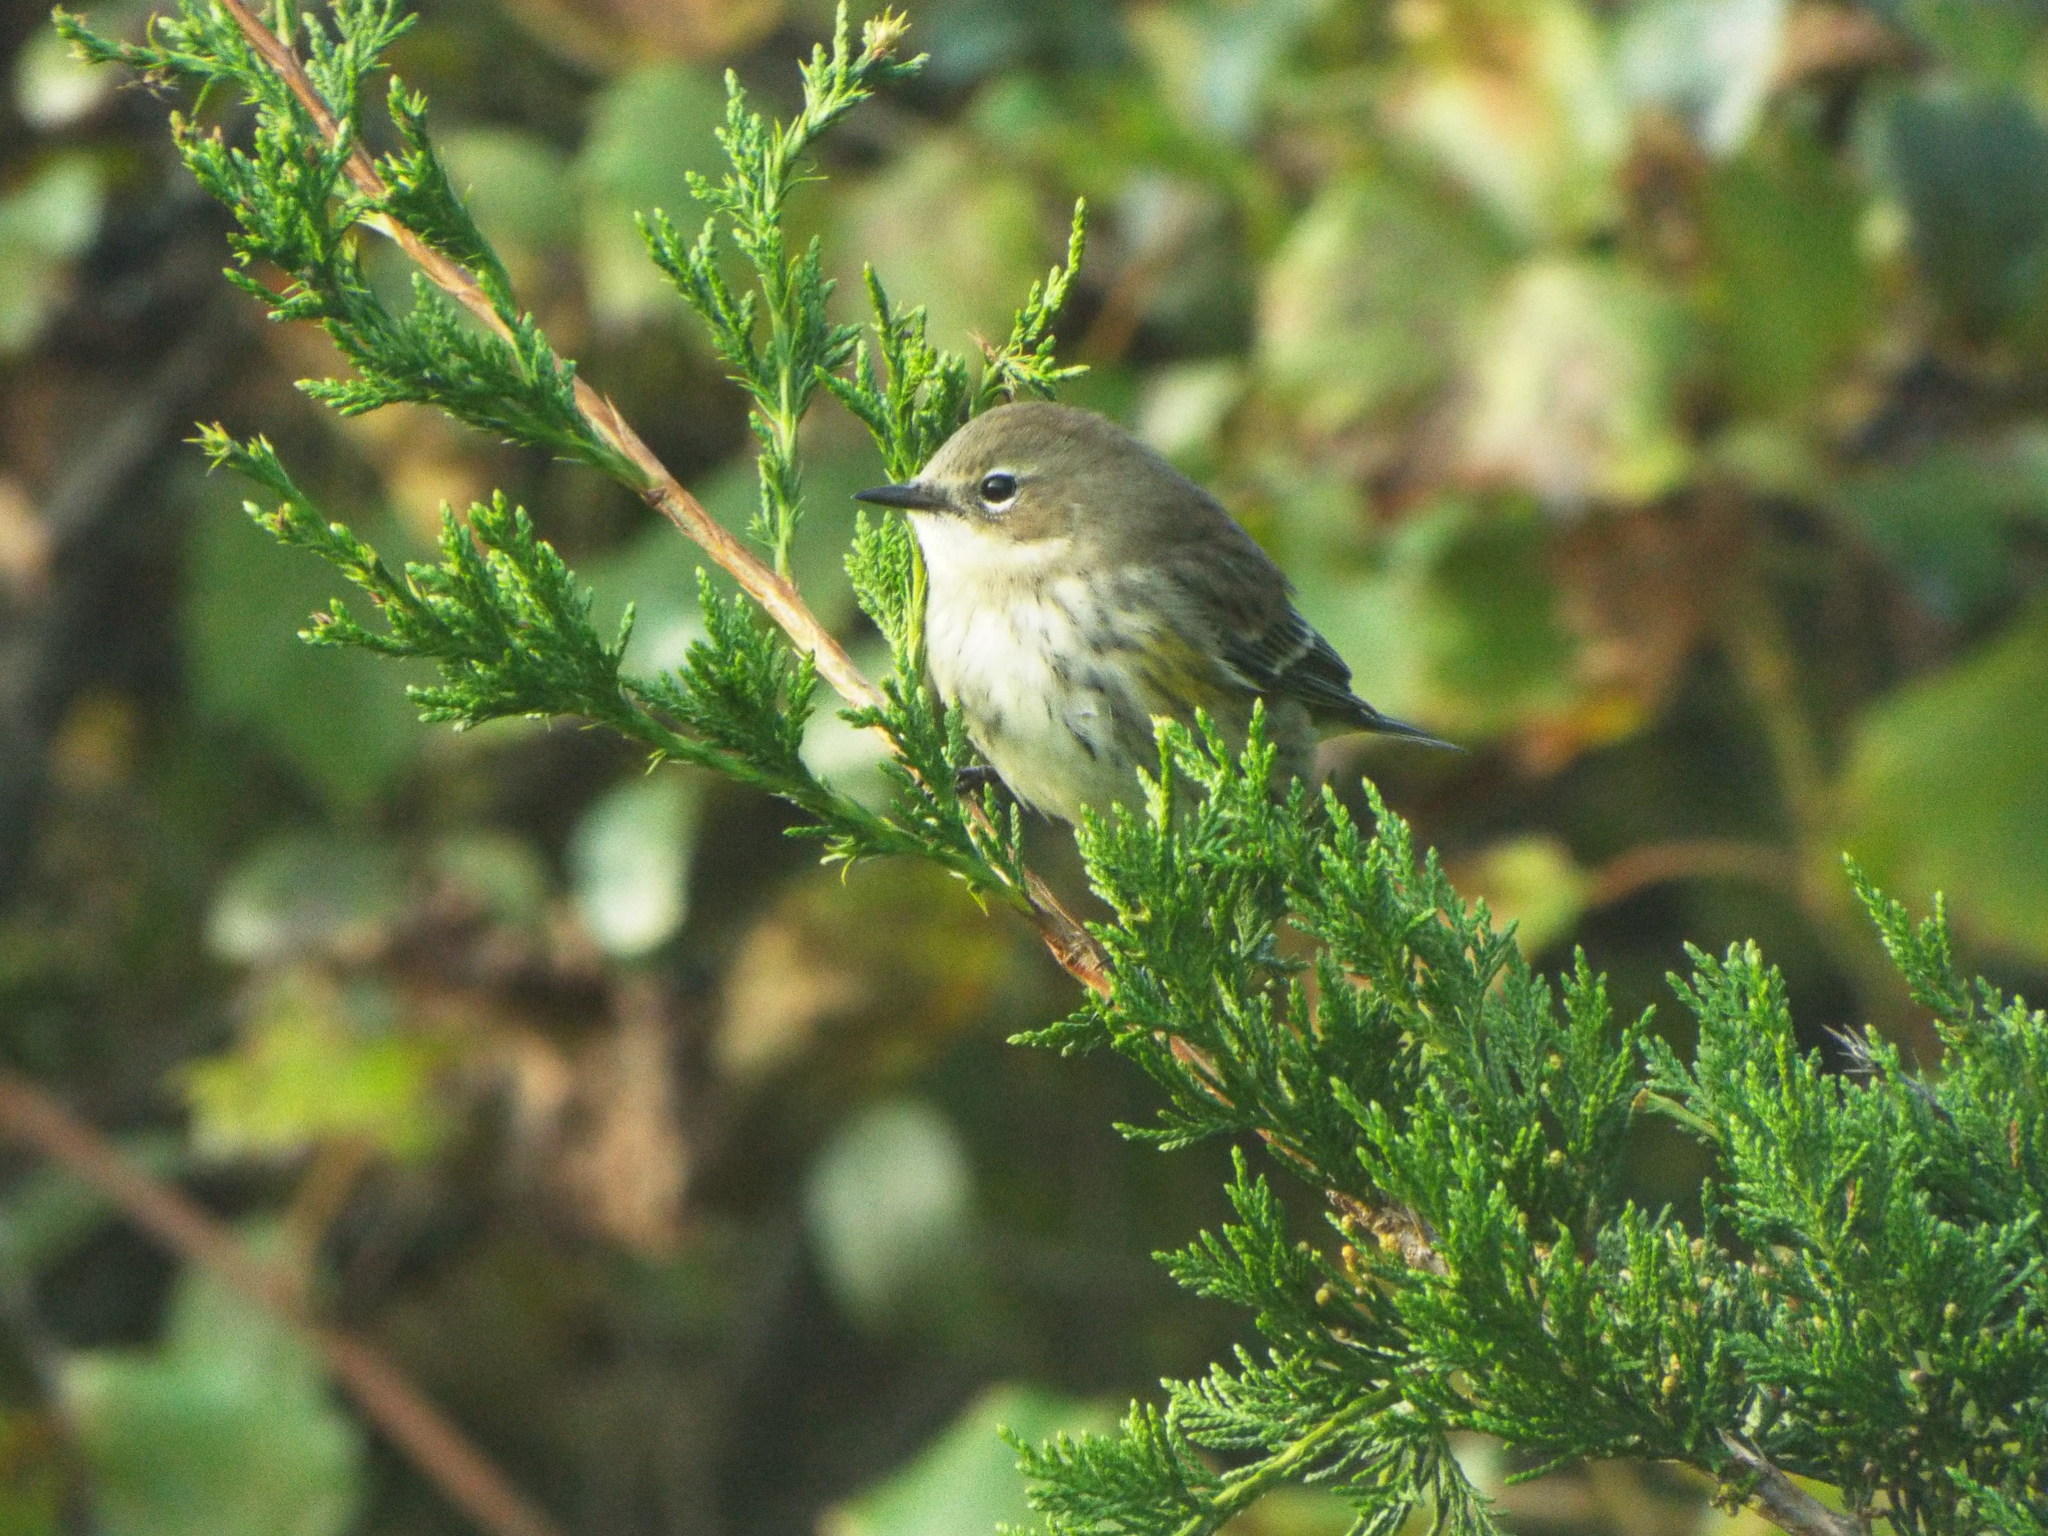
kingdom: Animalia
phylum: Chordata
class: Aves
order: Passeriformes
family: Parulidae
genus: Setophaga
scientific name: Setophaga coronata
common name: Myrtle warbler
